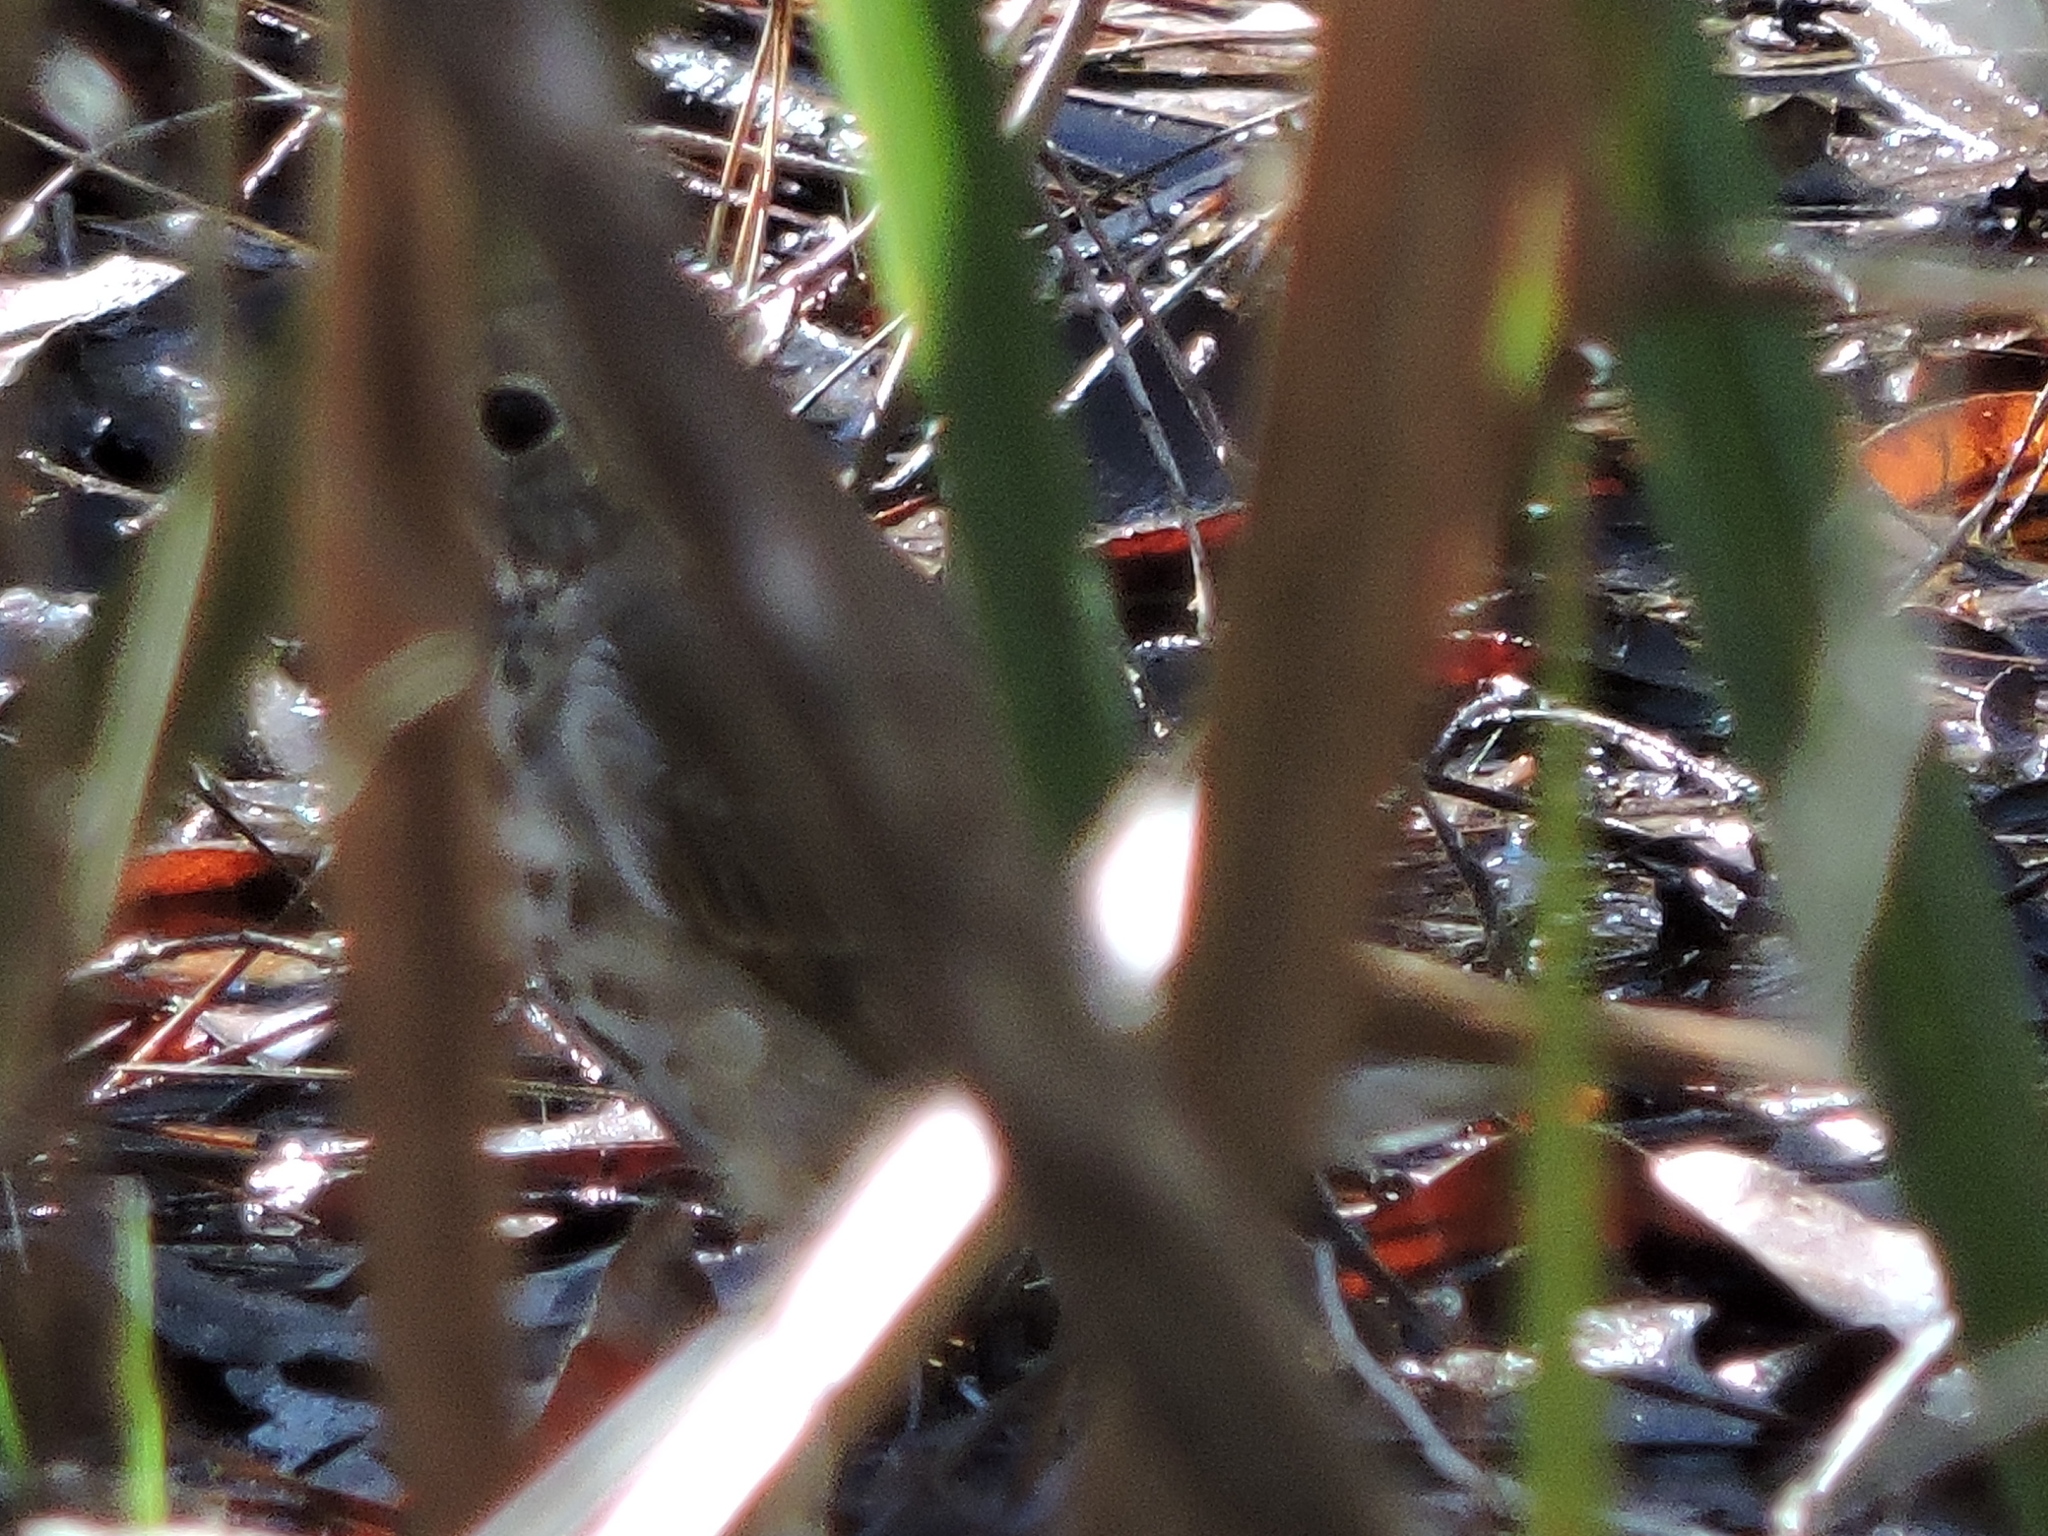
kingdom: Animalia
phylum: Chordata
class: Aves
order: Passeriformes
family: Turdidae
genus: Catharus
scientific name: Catharus guttatus
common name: Hermit thrush
